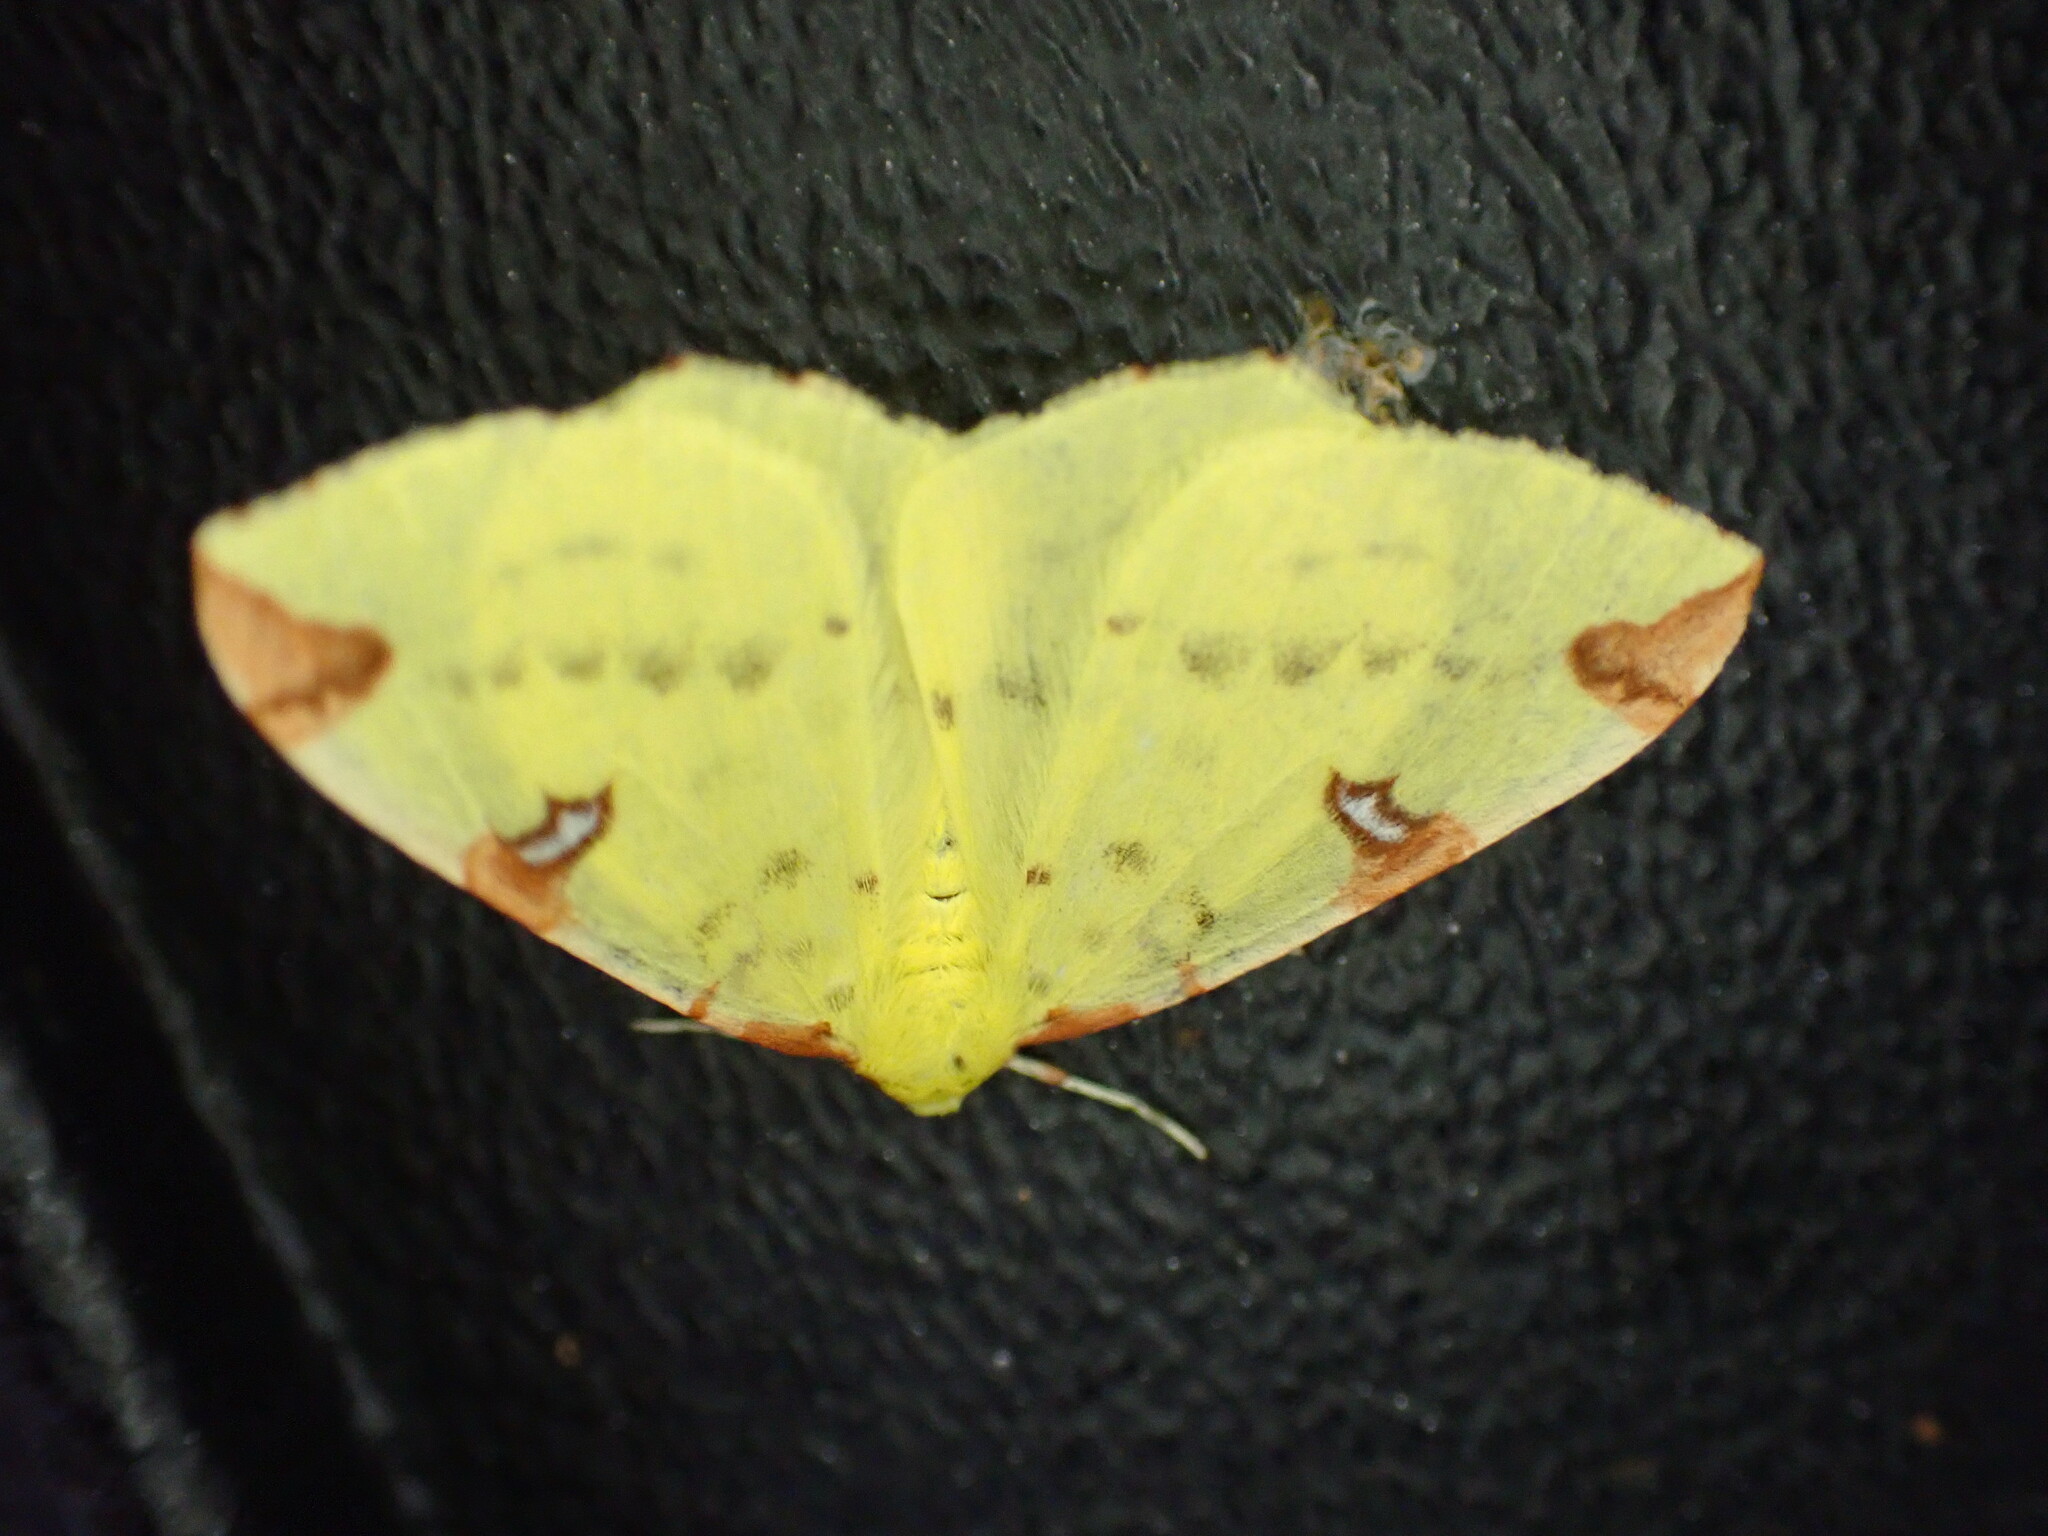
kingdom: Animalia
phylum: Arthropoda
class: Insecta
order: Lepidoptera
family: Geometridae
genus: Opisthograptis
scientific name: Opisthograptis luteolata
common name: Brimstone moth
